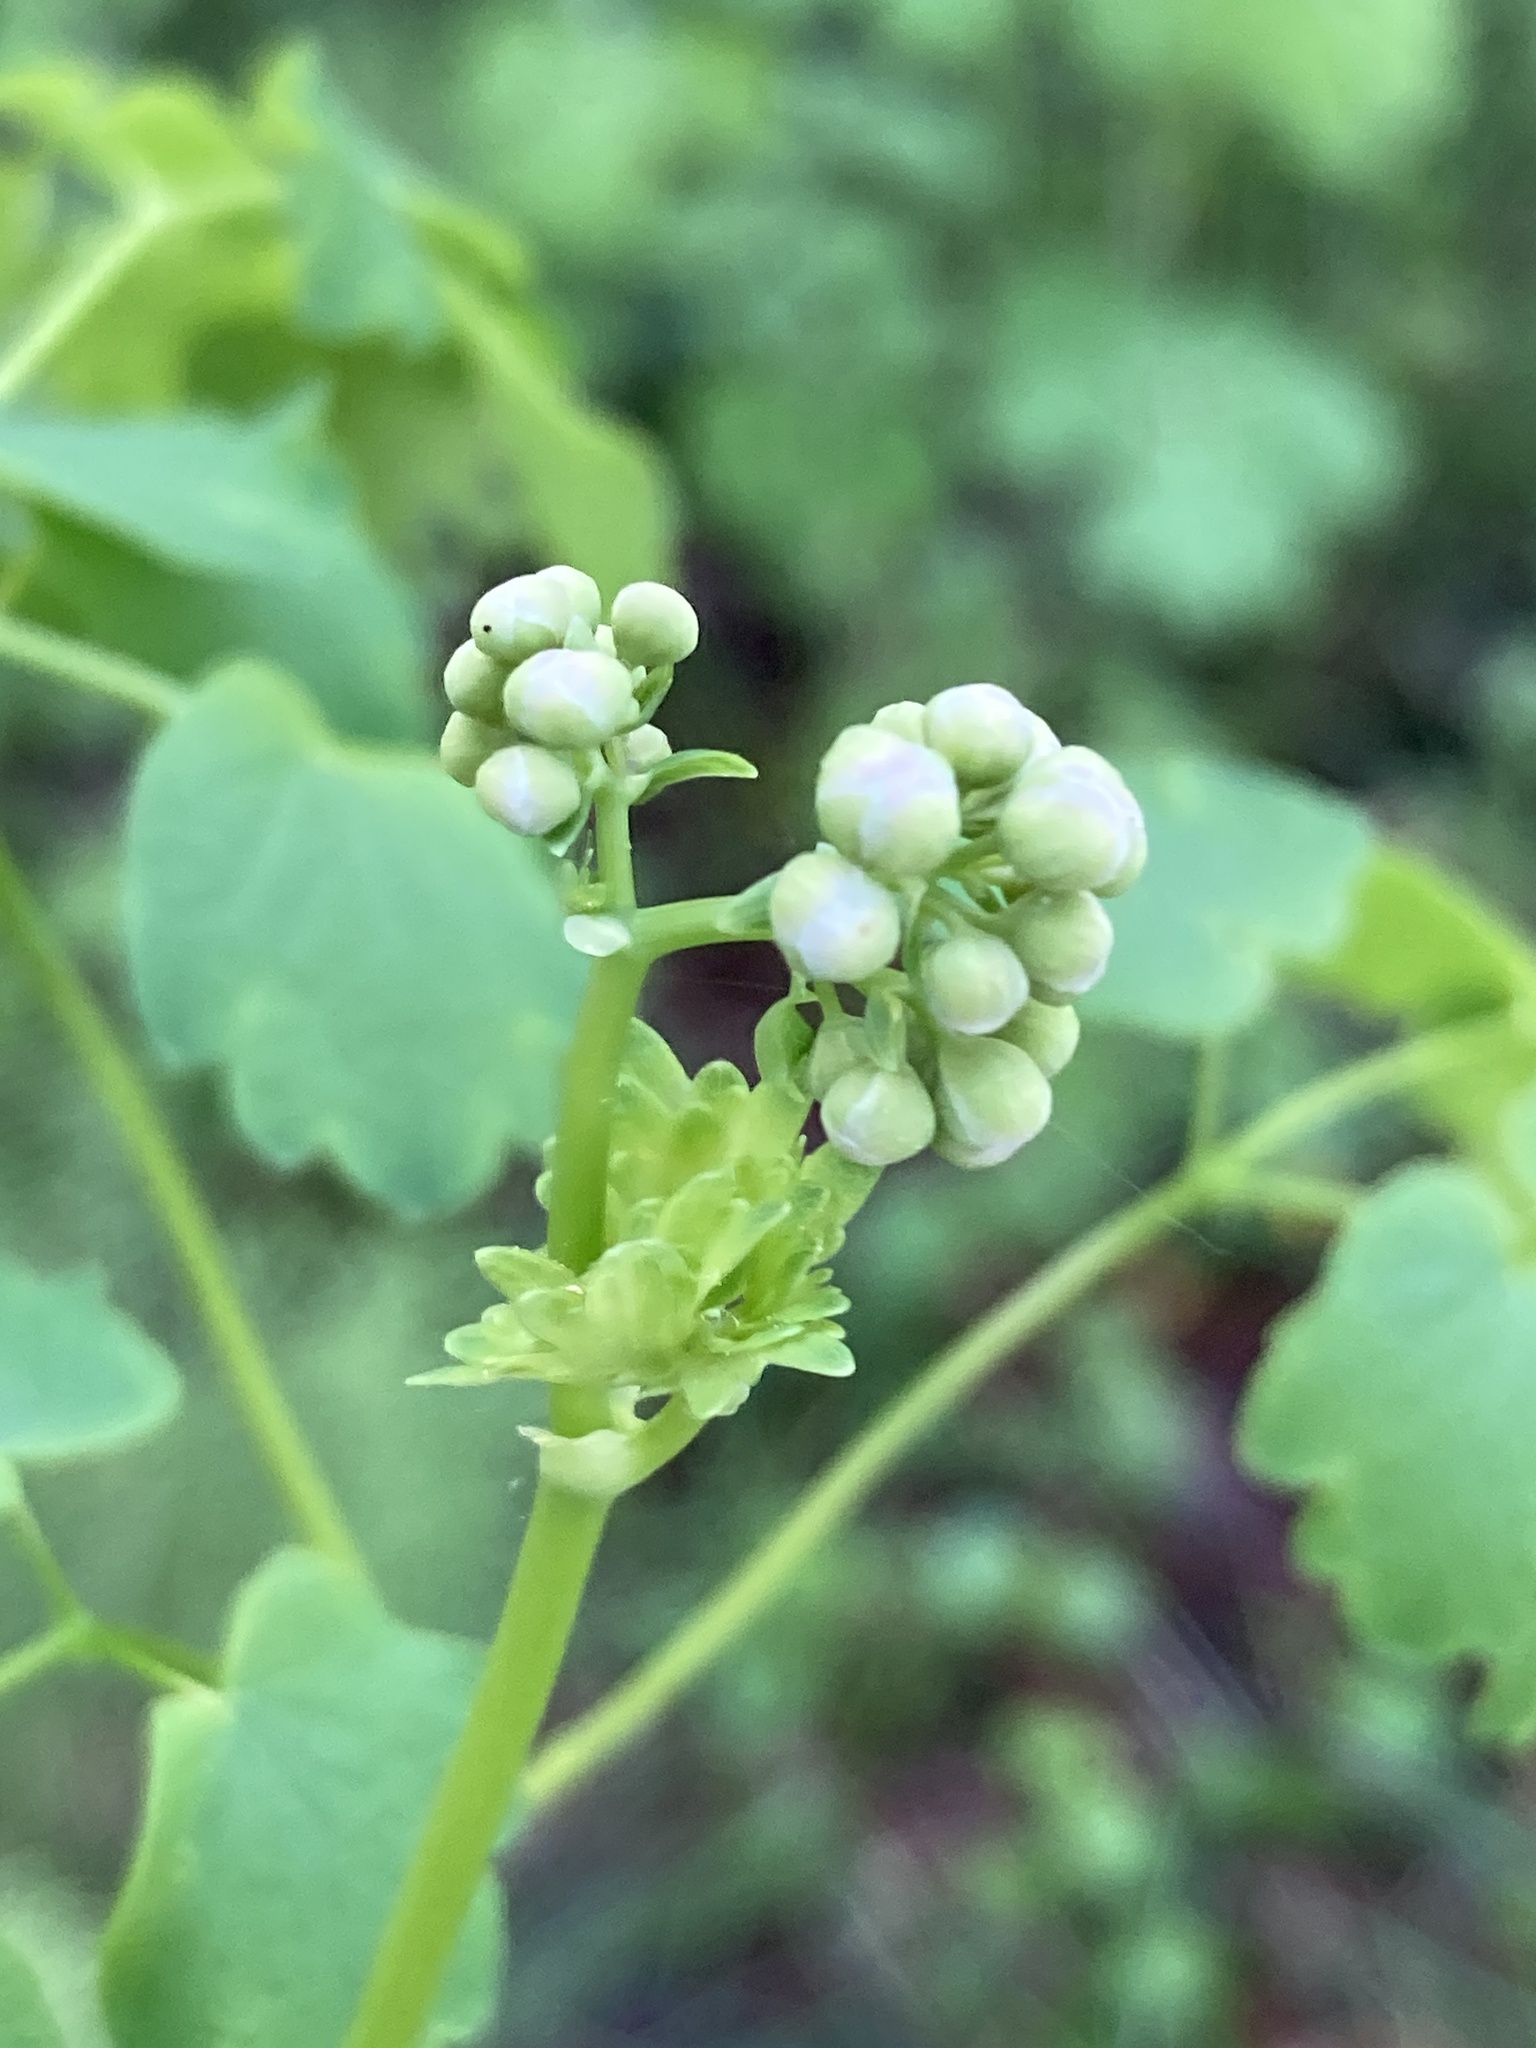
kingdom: Plantae
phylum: Tracheophyta
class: Magnoliopsida
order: Ranunculales
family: Ranunculaceae
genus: Thalictrum
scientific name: Thalictrum aquilegiifolium
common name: French meadow-rue
